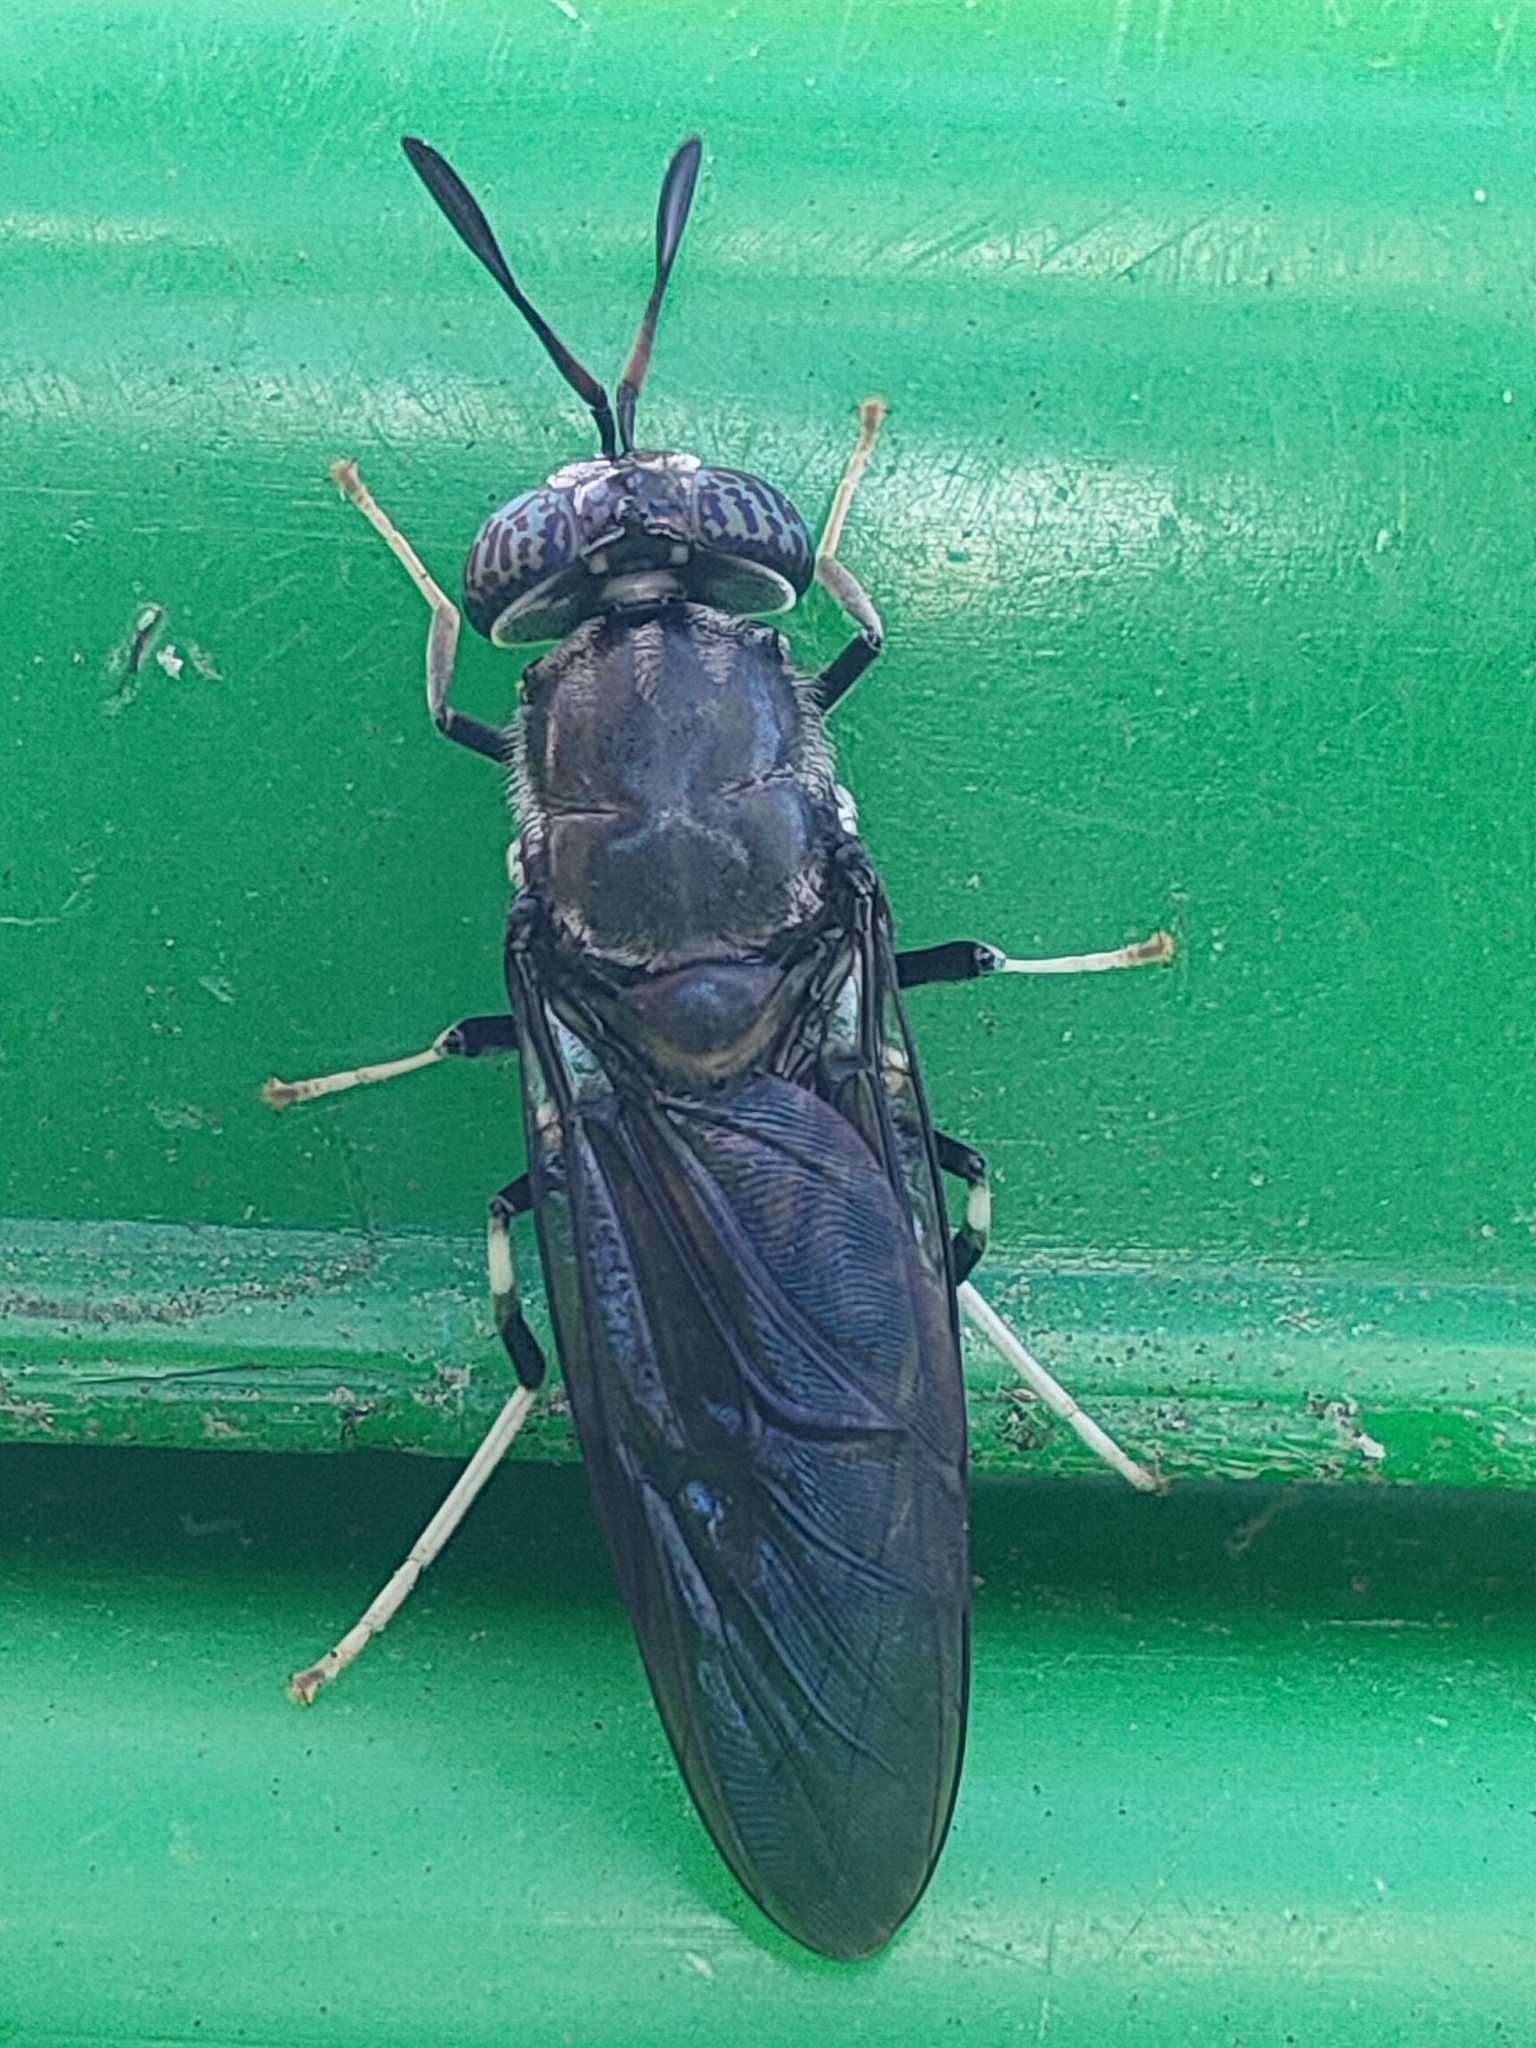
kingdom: Animalia
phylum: Arthropoda
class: Insecta
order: Diptera
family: Stratiomyidae
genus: Hermetia
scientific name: Hermetia illucens
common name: Black soldier fly
